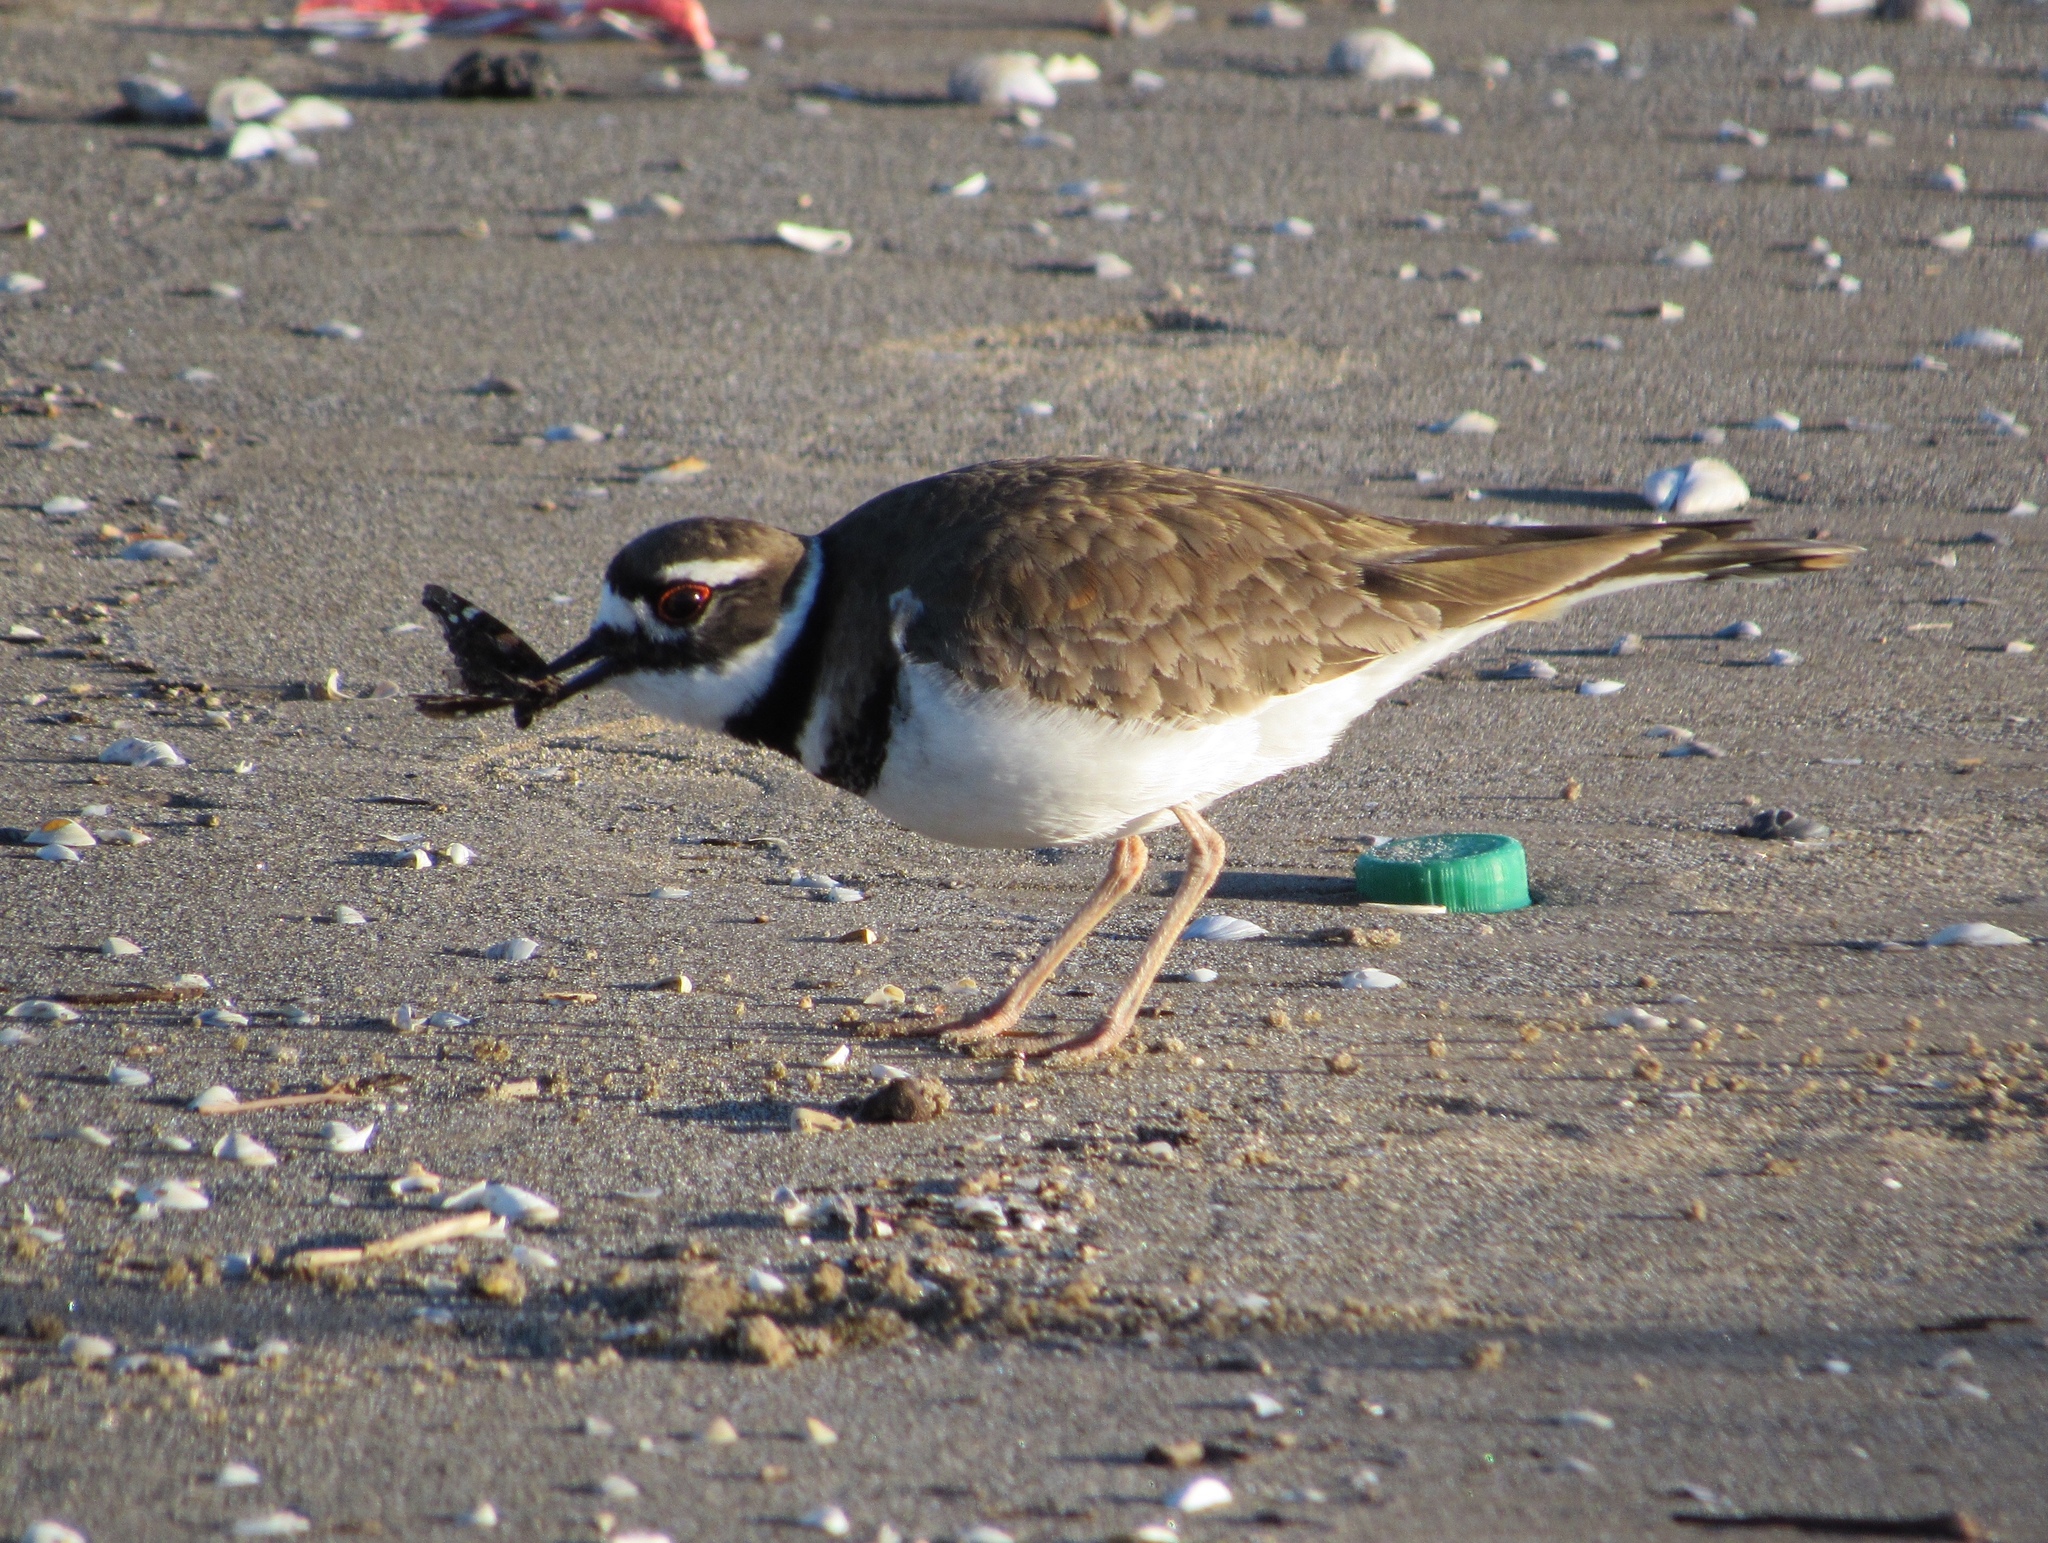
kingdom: Animalia
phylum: Chordata
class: Aves
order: Charadriiformes
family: Charadriidae
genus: Charadrius
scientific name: Charadrius vociferus
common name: Killdeer
